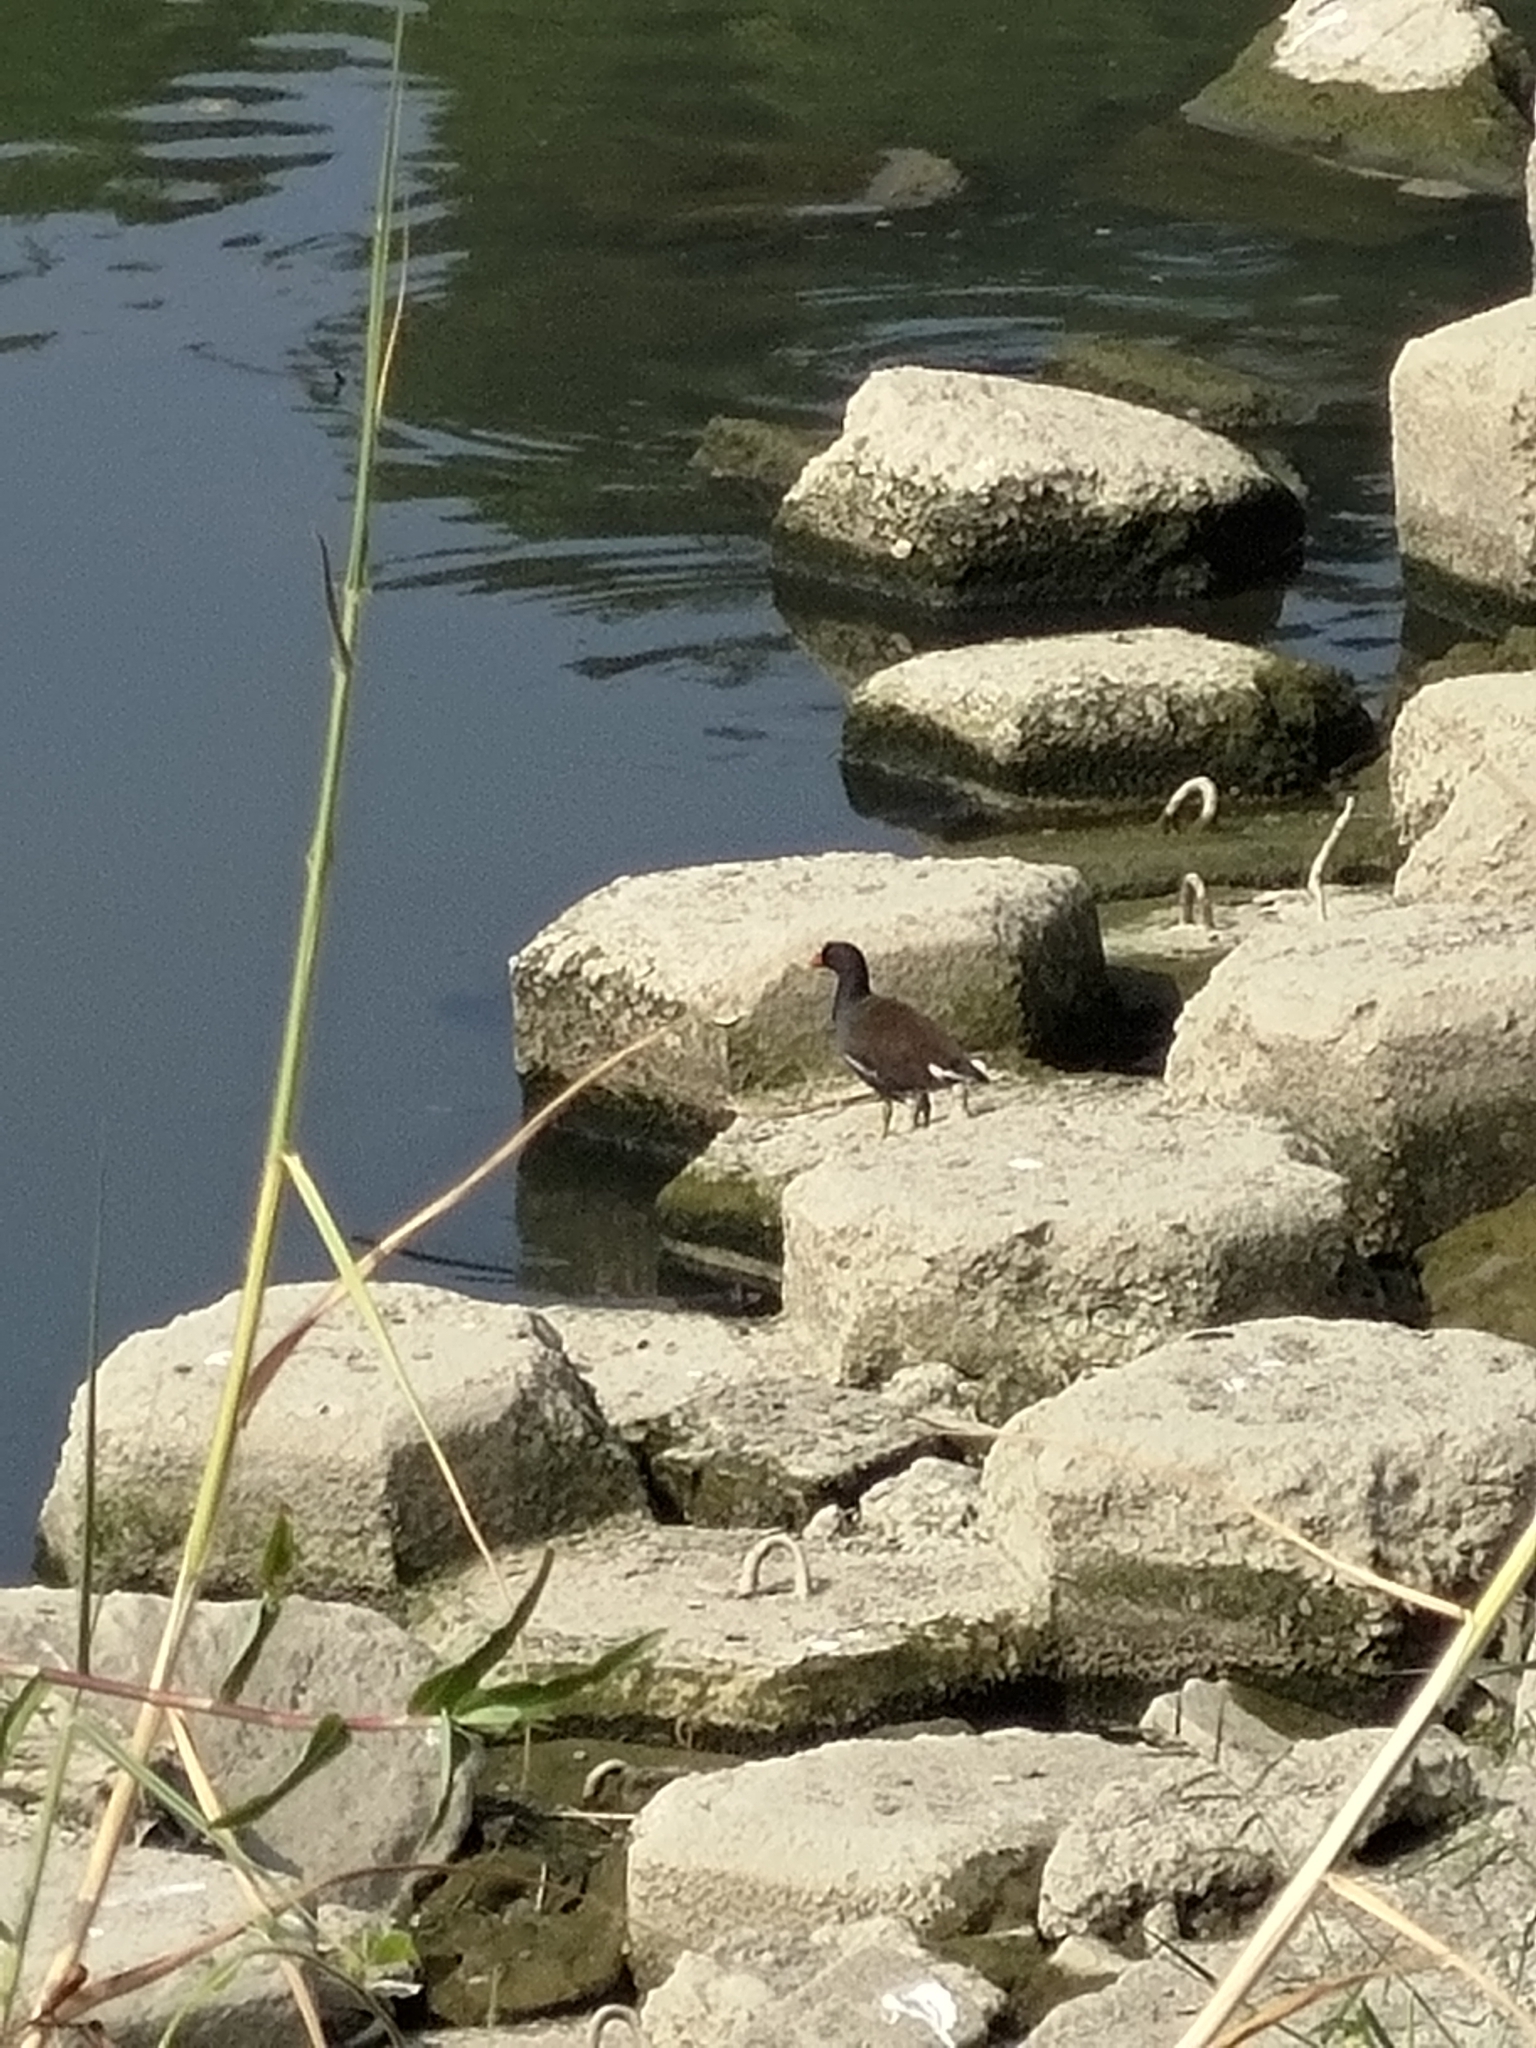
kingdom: Animalia
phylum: Chordata
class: Aves
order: Gruiformes
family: Rallidae
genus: Gallinula
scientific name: Gallinula chloropus
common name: Common moorhen
